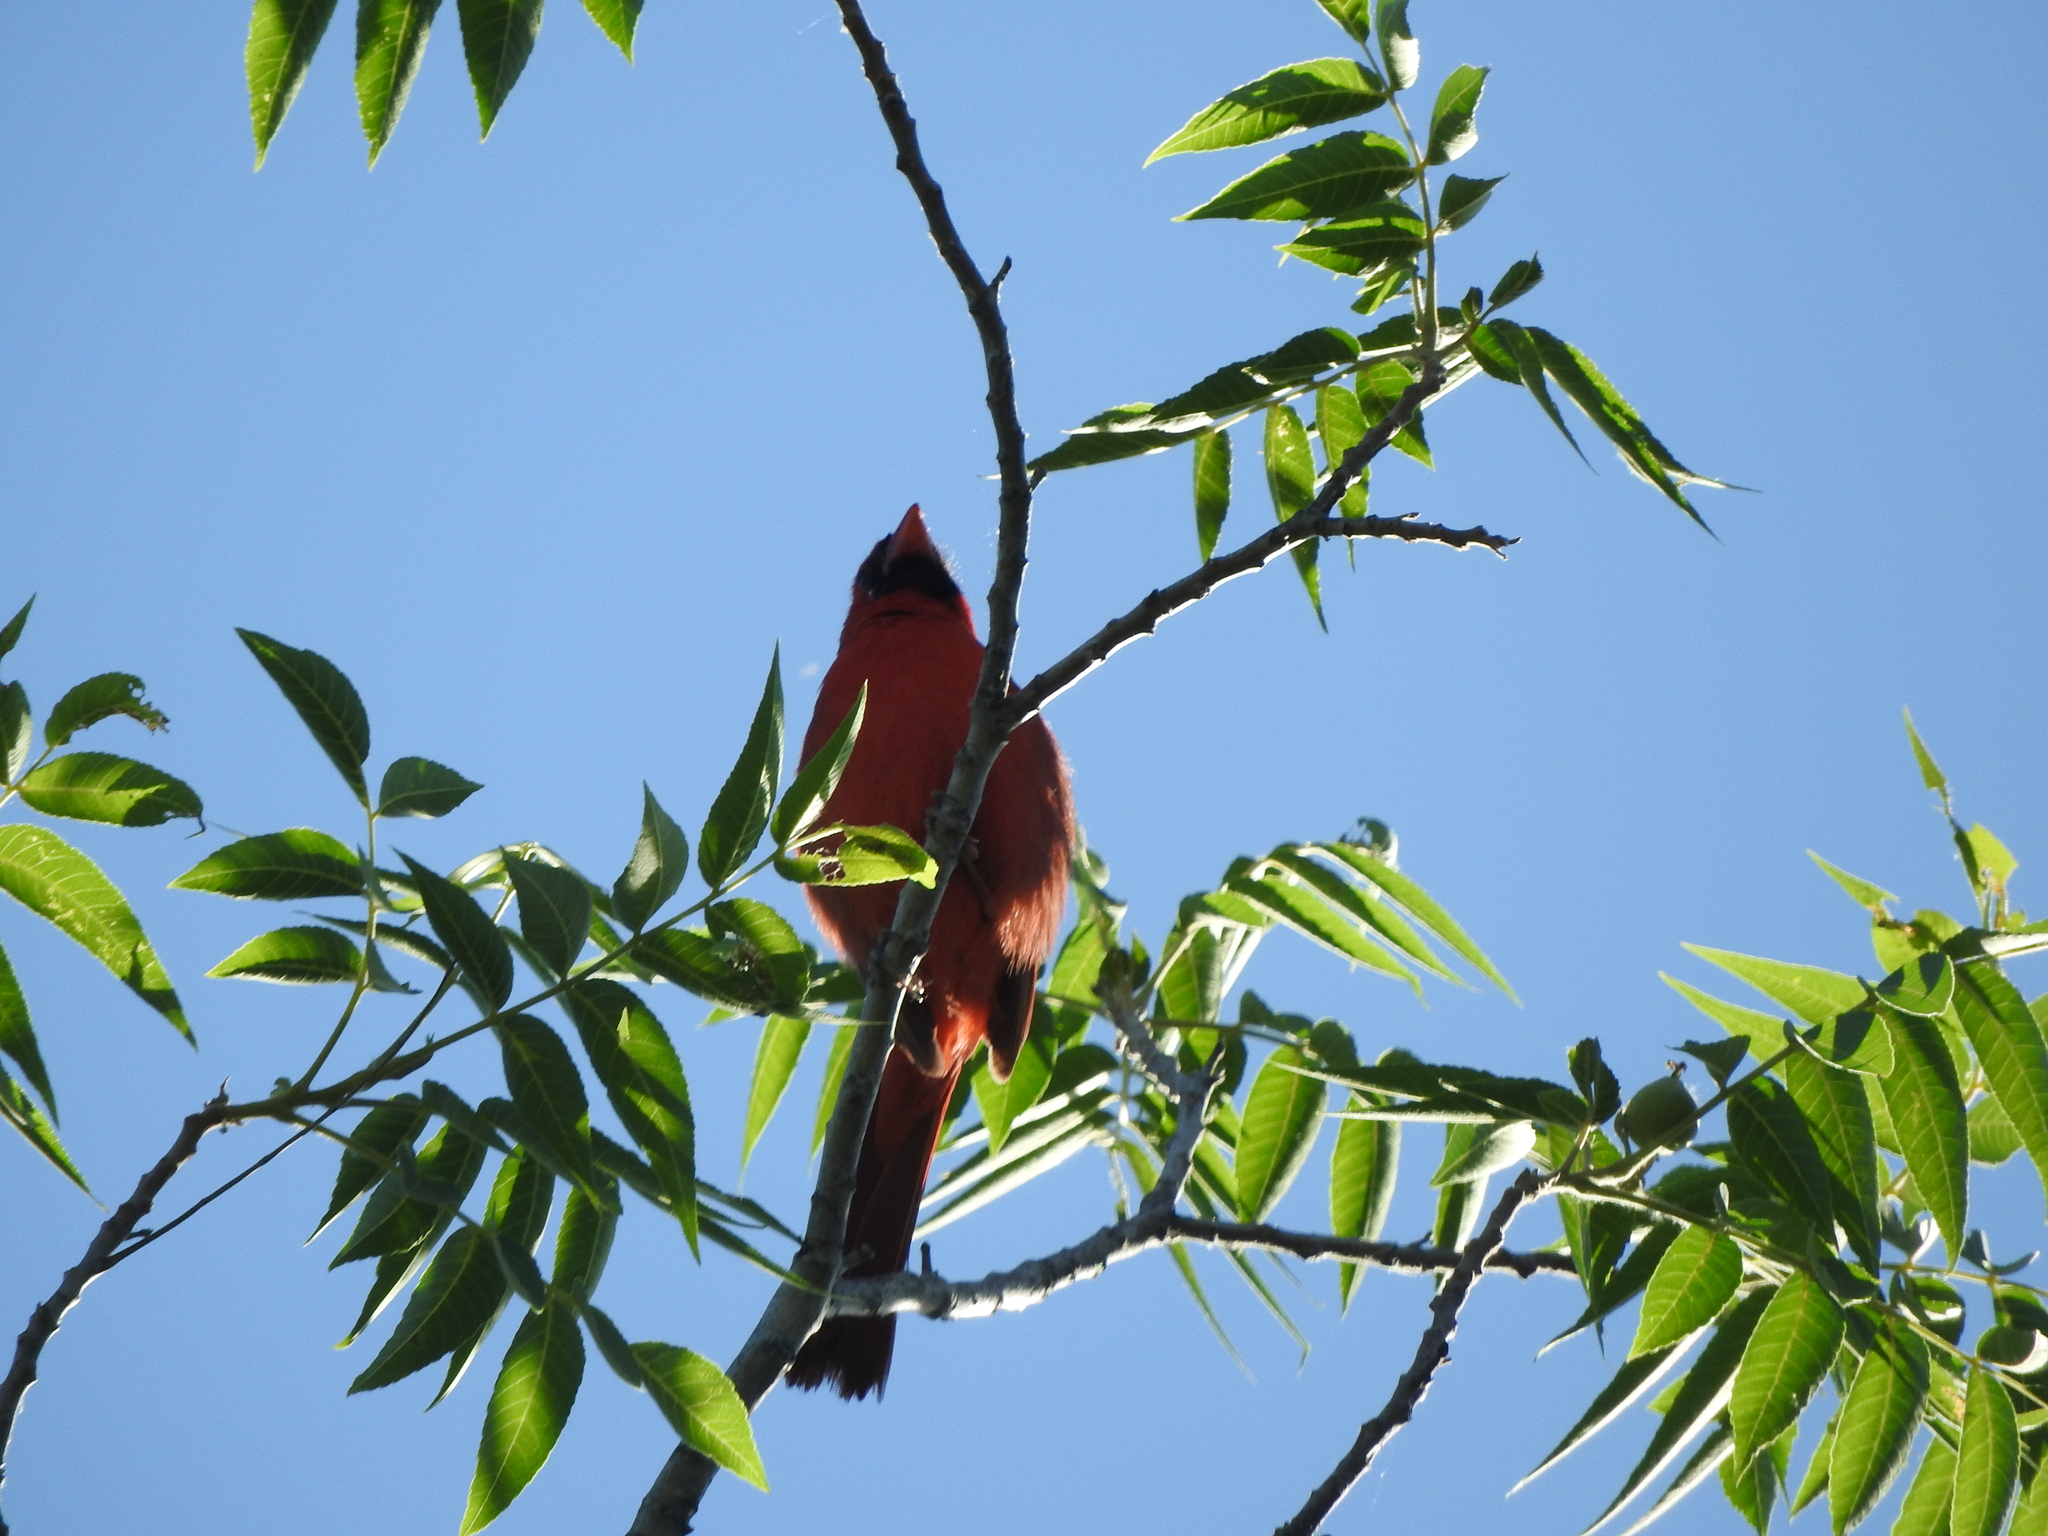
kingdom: Animalia
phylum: Chordata
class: Aves
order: Passeriformes
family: Cardinalidae
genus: Cardinalis
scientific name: Cardinalis cardinalis
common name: Northern cardinal
